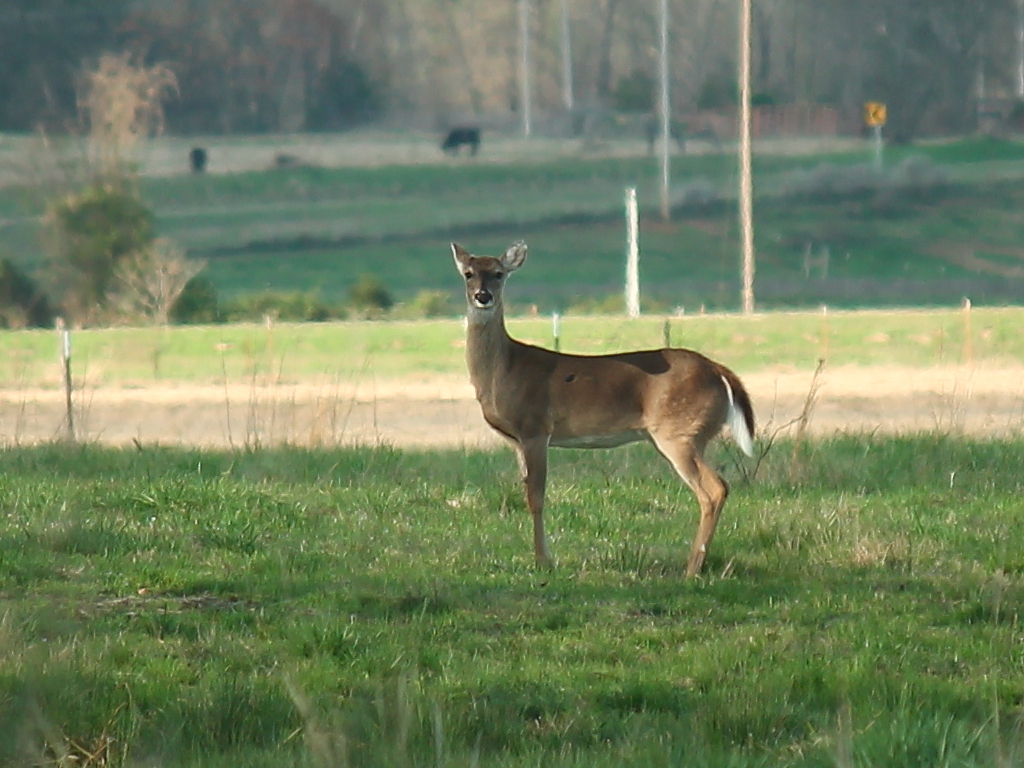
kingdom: Animalia
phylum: Chordata
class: Mammalia
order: Artiodactyla
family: Cervidae
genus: Odocoileus
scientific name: Odocoileus virginianus
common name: White-tailed deer
